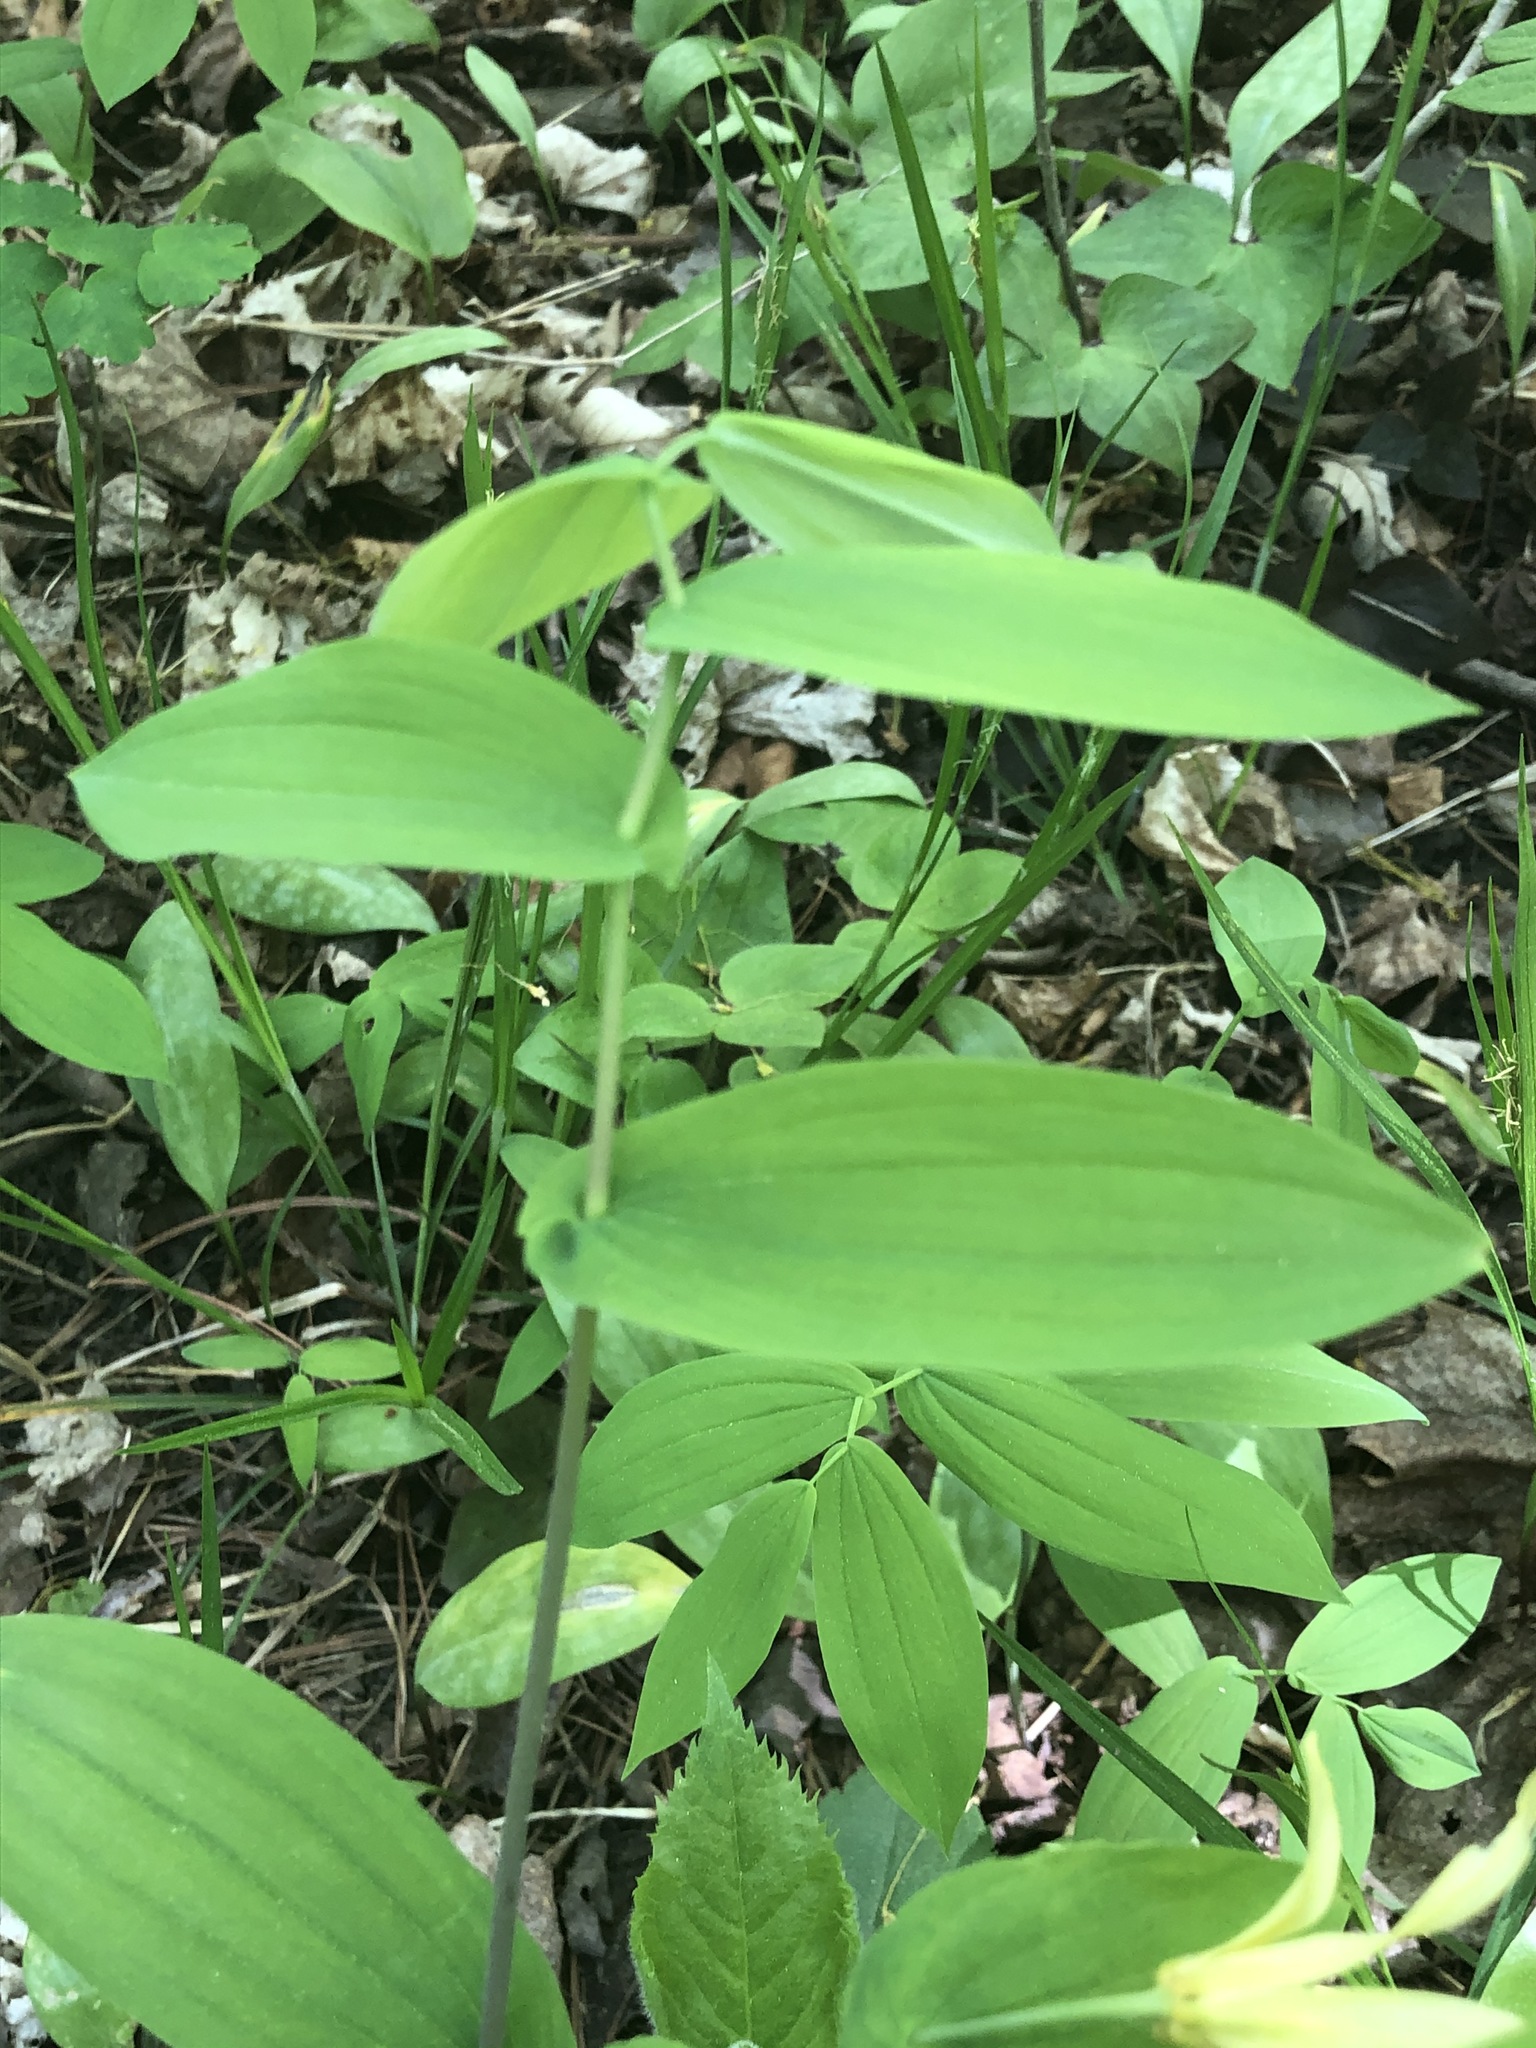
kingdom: Plantae
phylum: Tracheophyta
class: Liliopsida
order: Liliales
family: Colchicaceae
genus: Uvularia
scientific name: Uvularia grandiflora
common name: Bellwort
